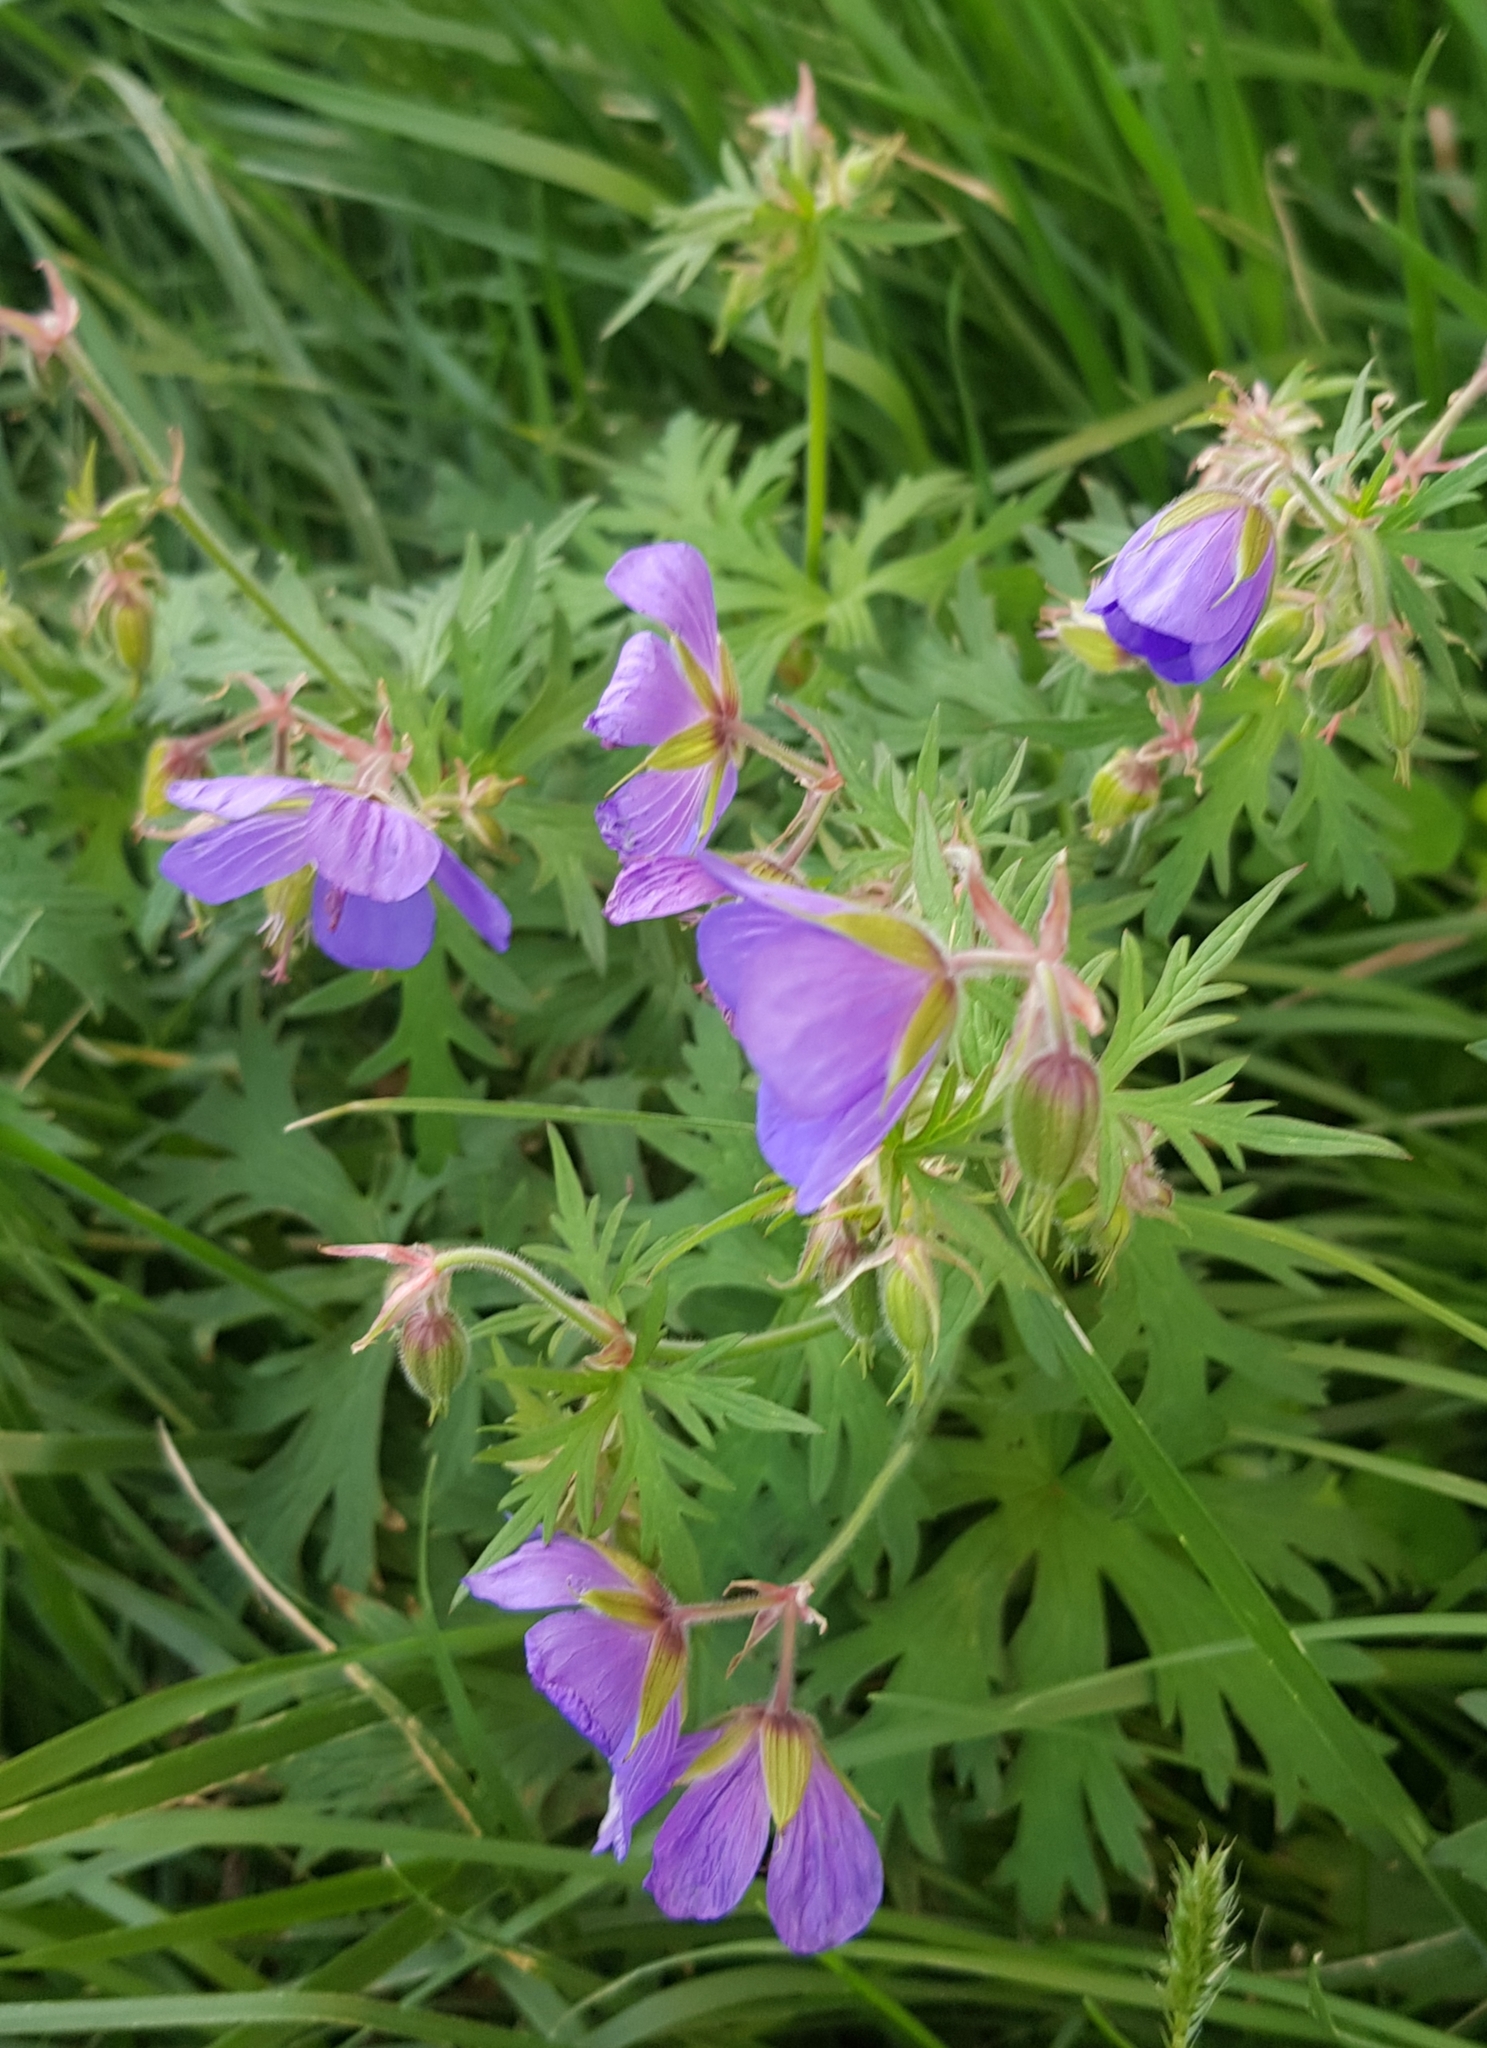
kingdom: Plantae
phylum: Tracheophyta
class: Magnoliopsida
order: Geraniales
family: Geraniaceae
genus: Geranium
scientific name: Geranium pratense
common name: Meadow crane's-bill
